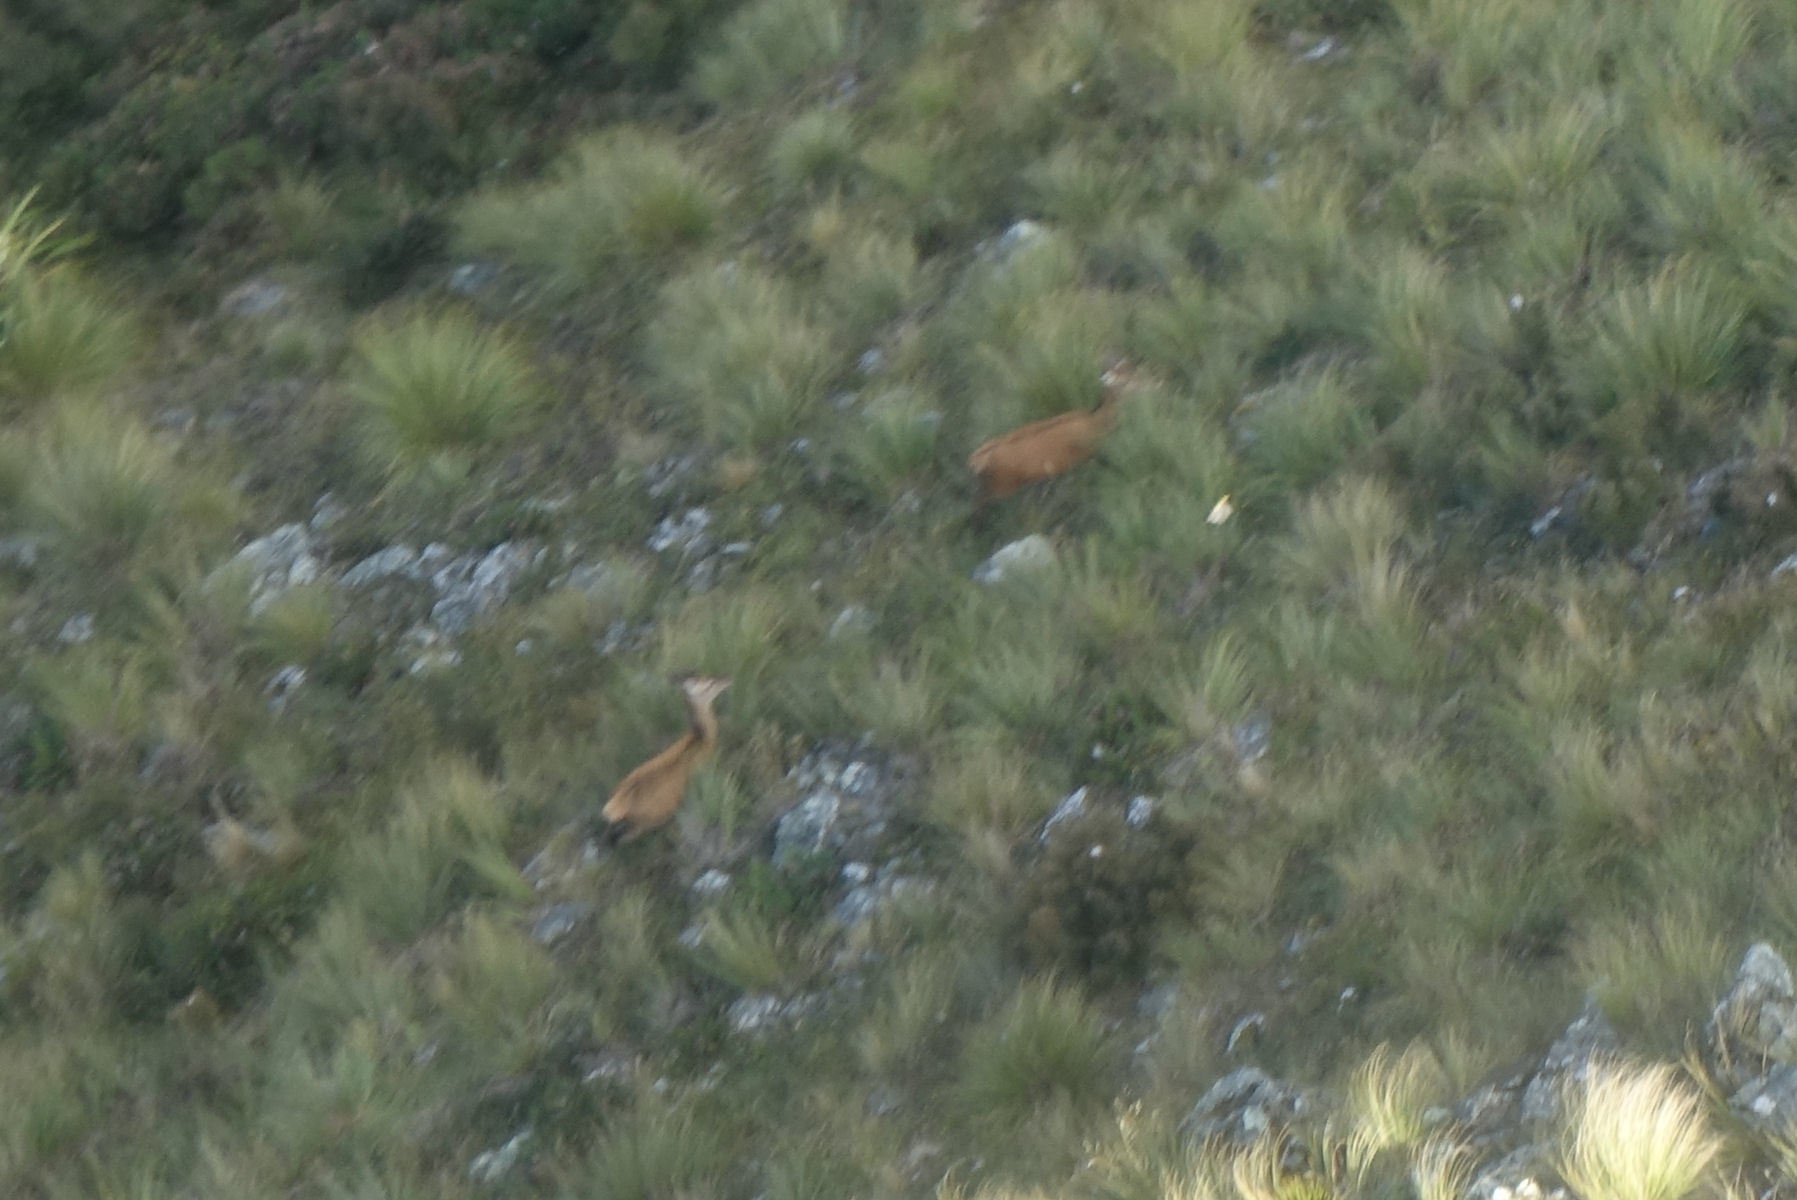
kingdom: Animalia
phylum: Chordata
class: Mammalia
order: Artiodactyla
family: Cervidae
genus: Cervus
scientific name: Cervus elaphus
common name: Red deer
